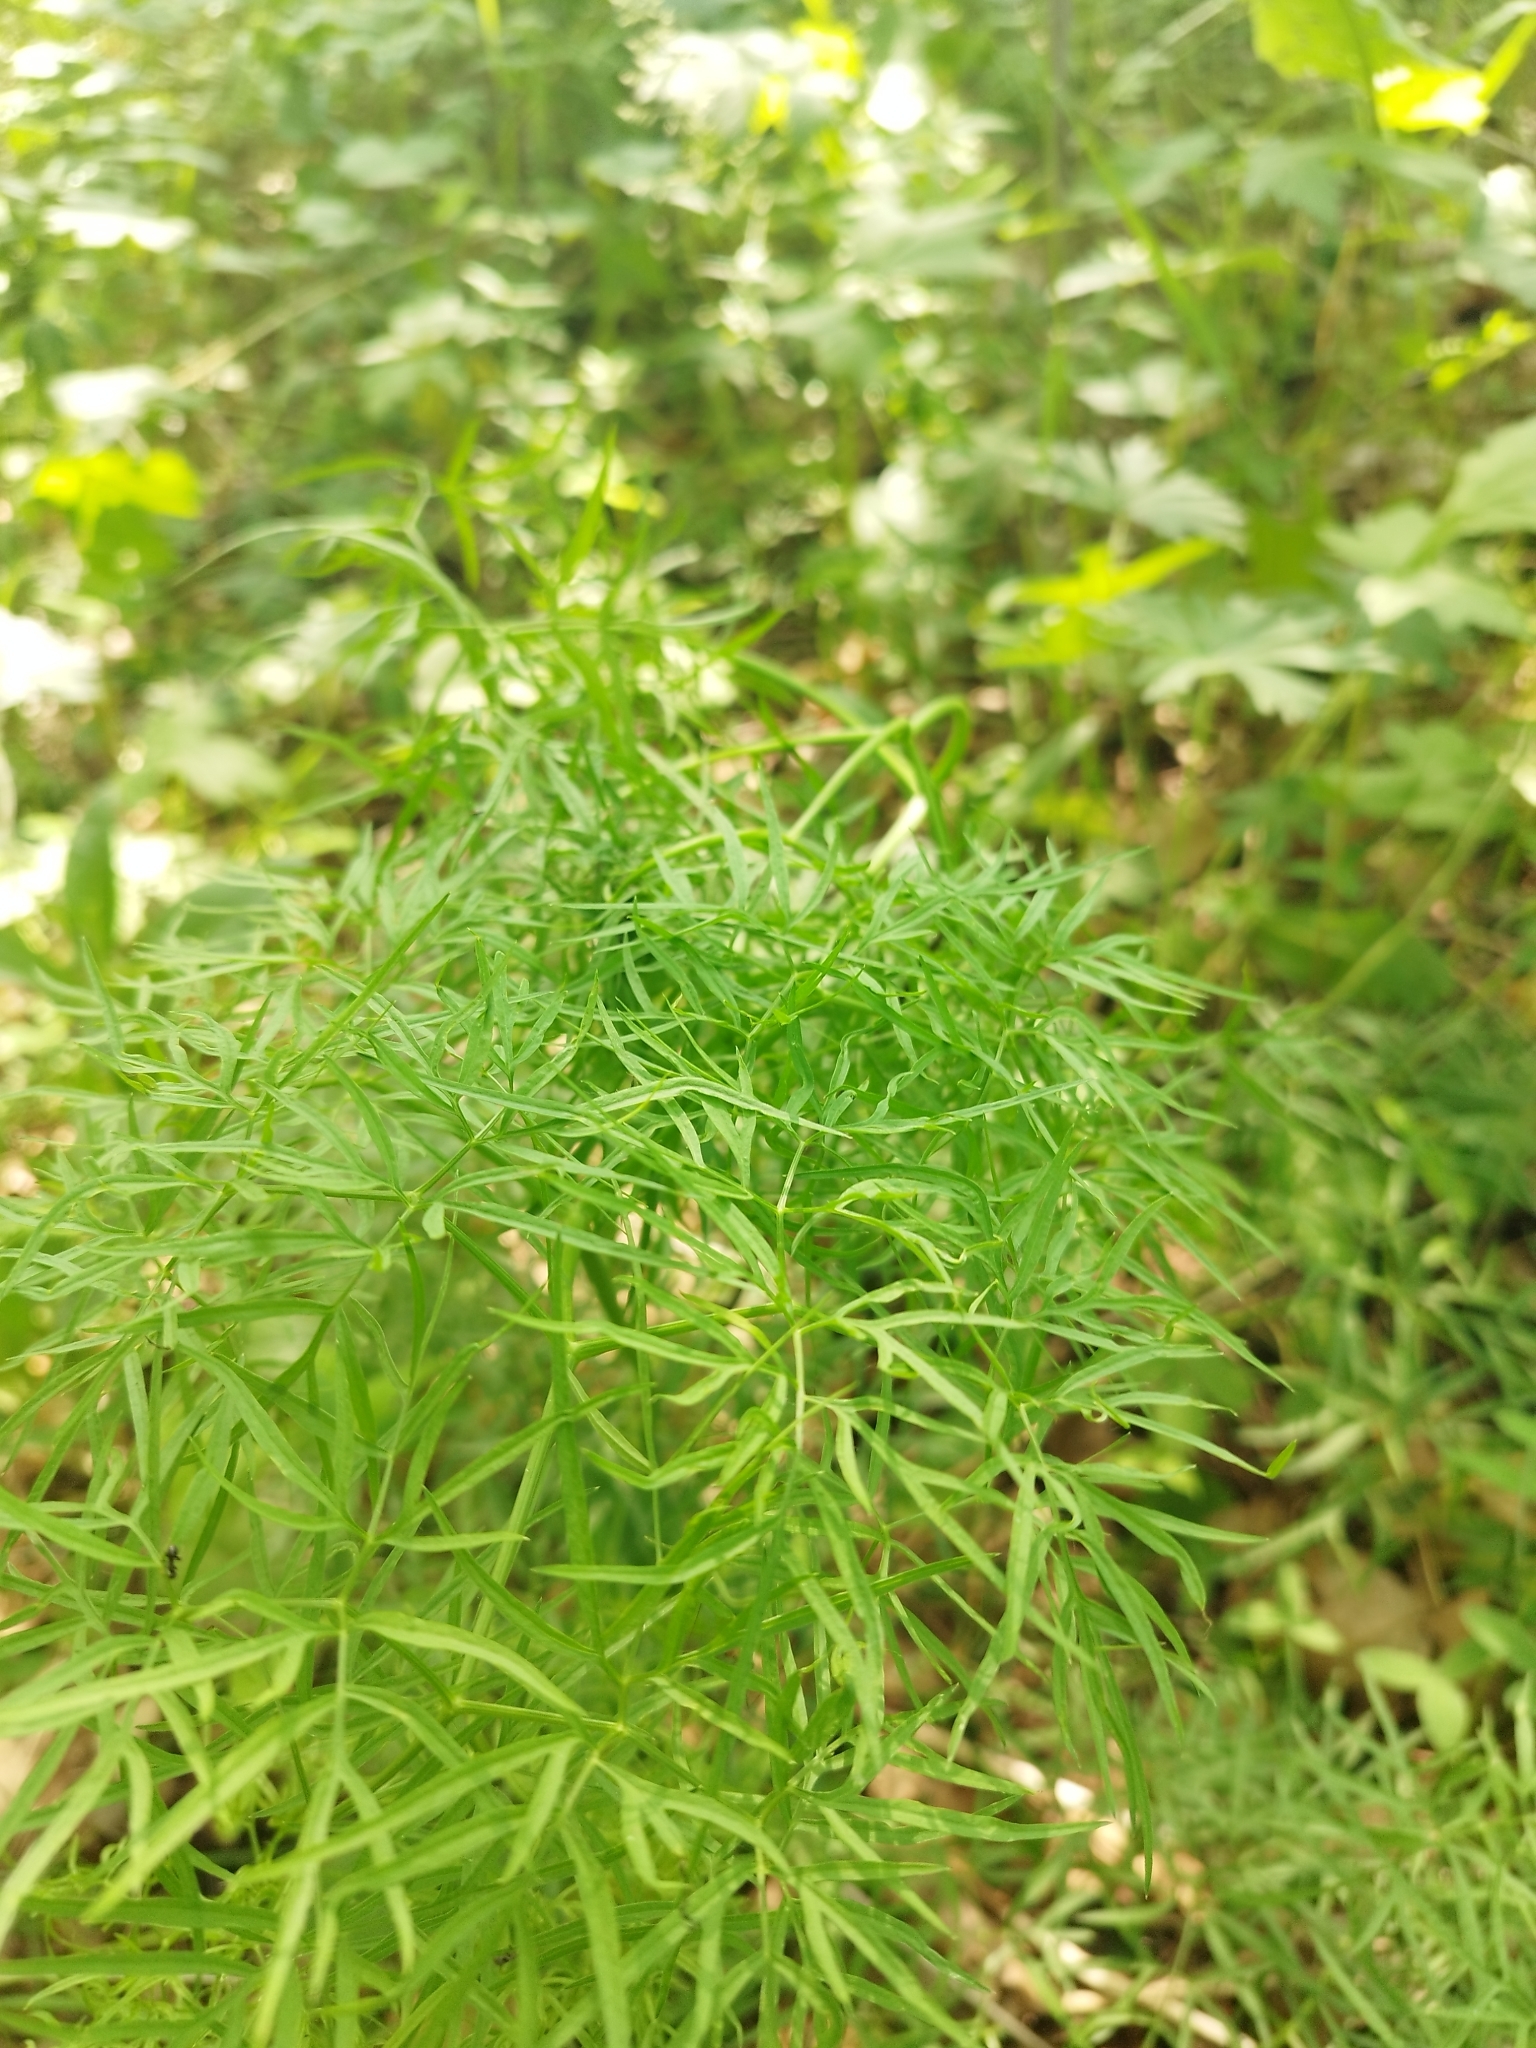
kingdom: Plantae
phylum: Tracheophyta
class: Magnoliopsida
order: Apiales
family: Apiaceae
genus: Cenolophium
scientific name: Cenolophium fischeri
